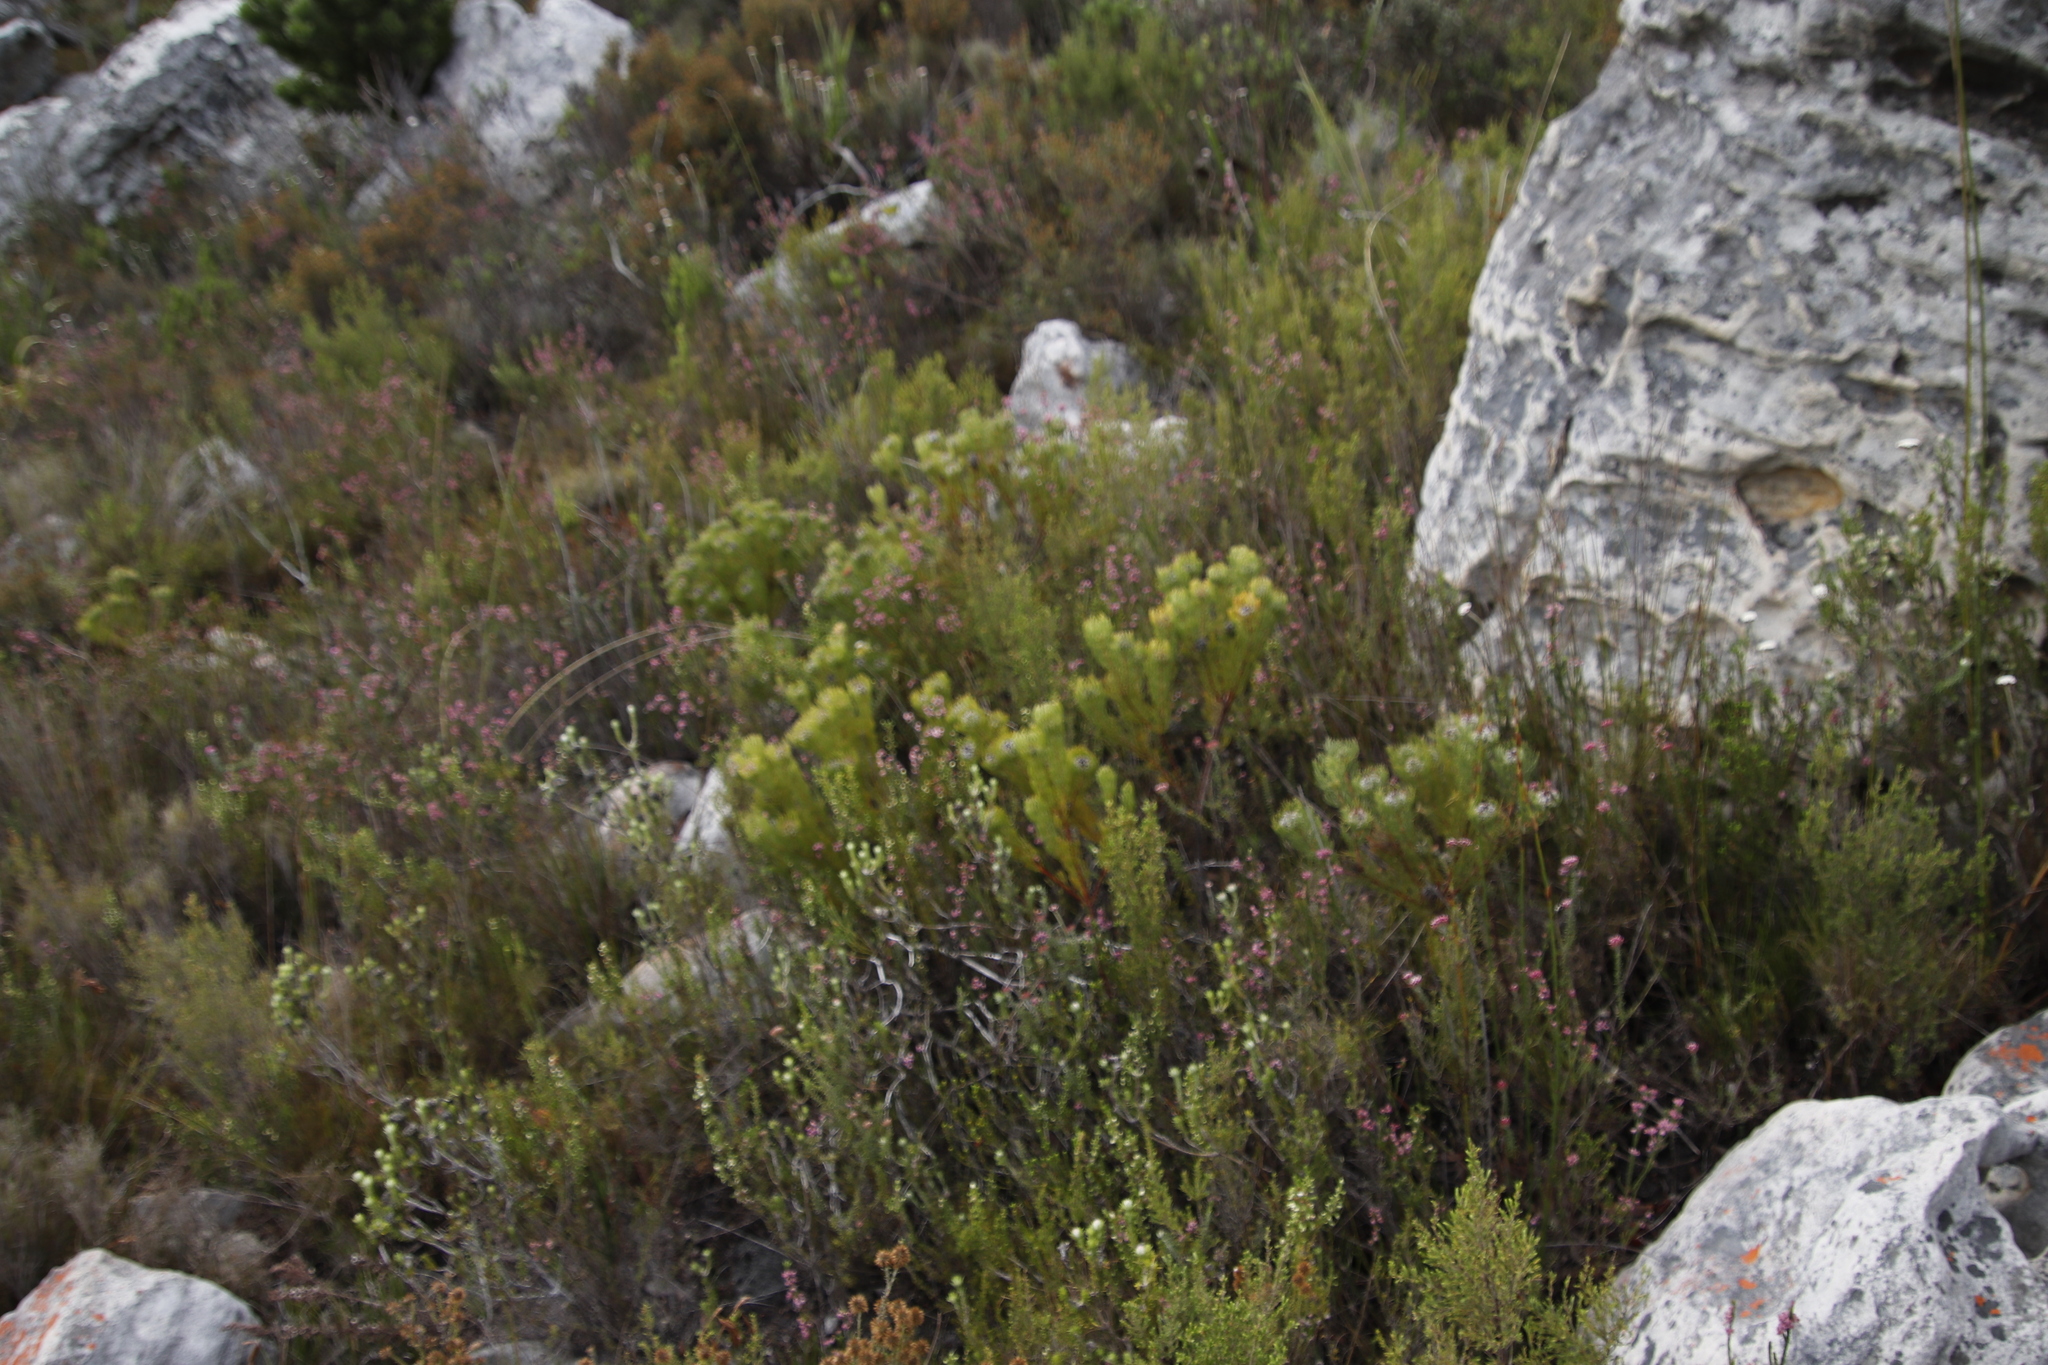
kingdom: Plantae
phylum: Tracheophyta
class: Magnoliopsida
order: Proteales
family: Proteaceae
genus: Serruria
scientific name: Serruria villosa
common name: Golden spiderhead
